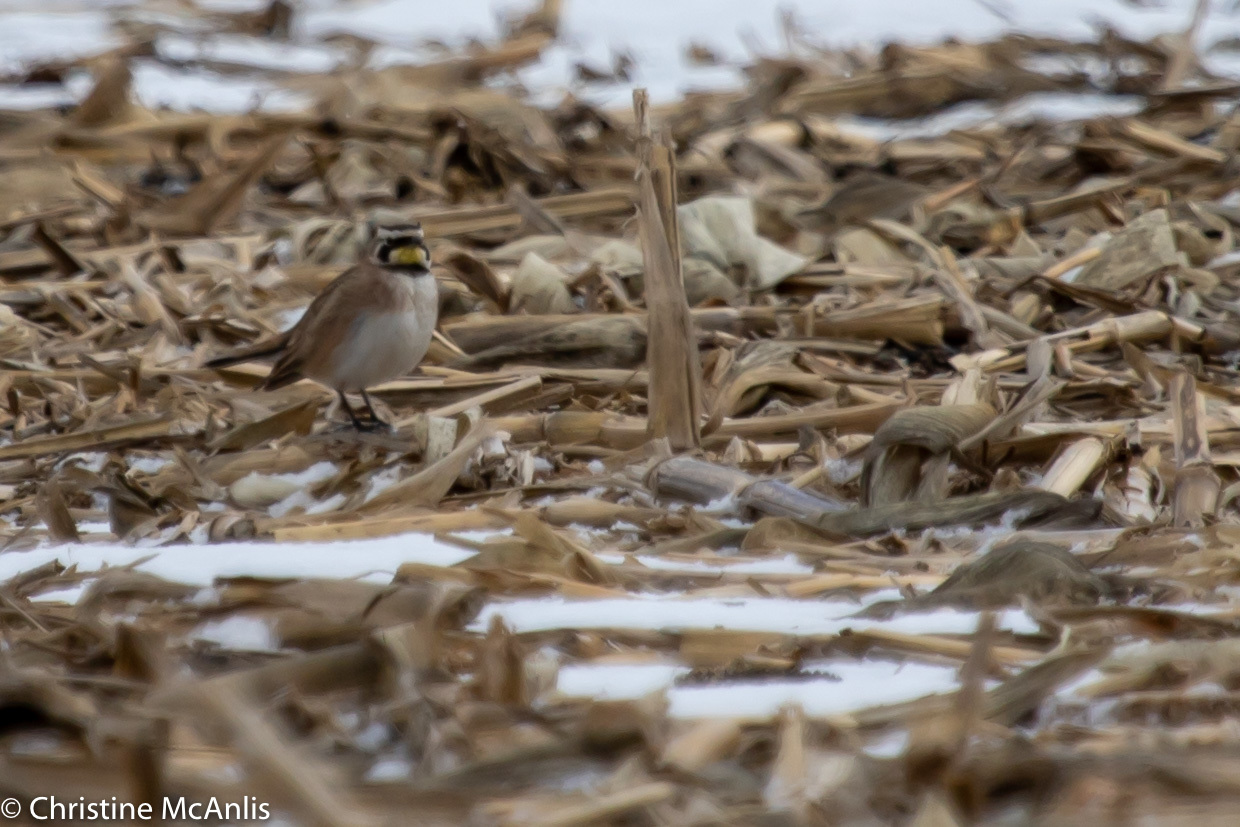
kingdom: Animalia
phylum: Chordata
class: Aves
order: Passeriformes
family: Alaudidae
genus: Eremophila
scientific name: Eremophila alpestris
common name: Horned lark
